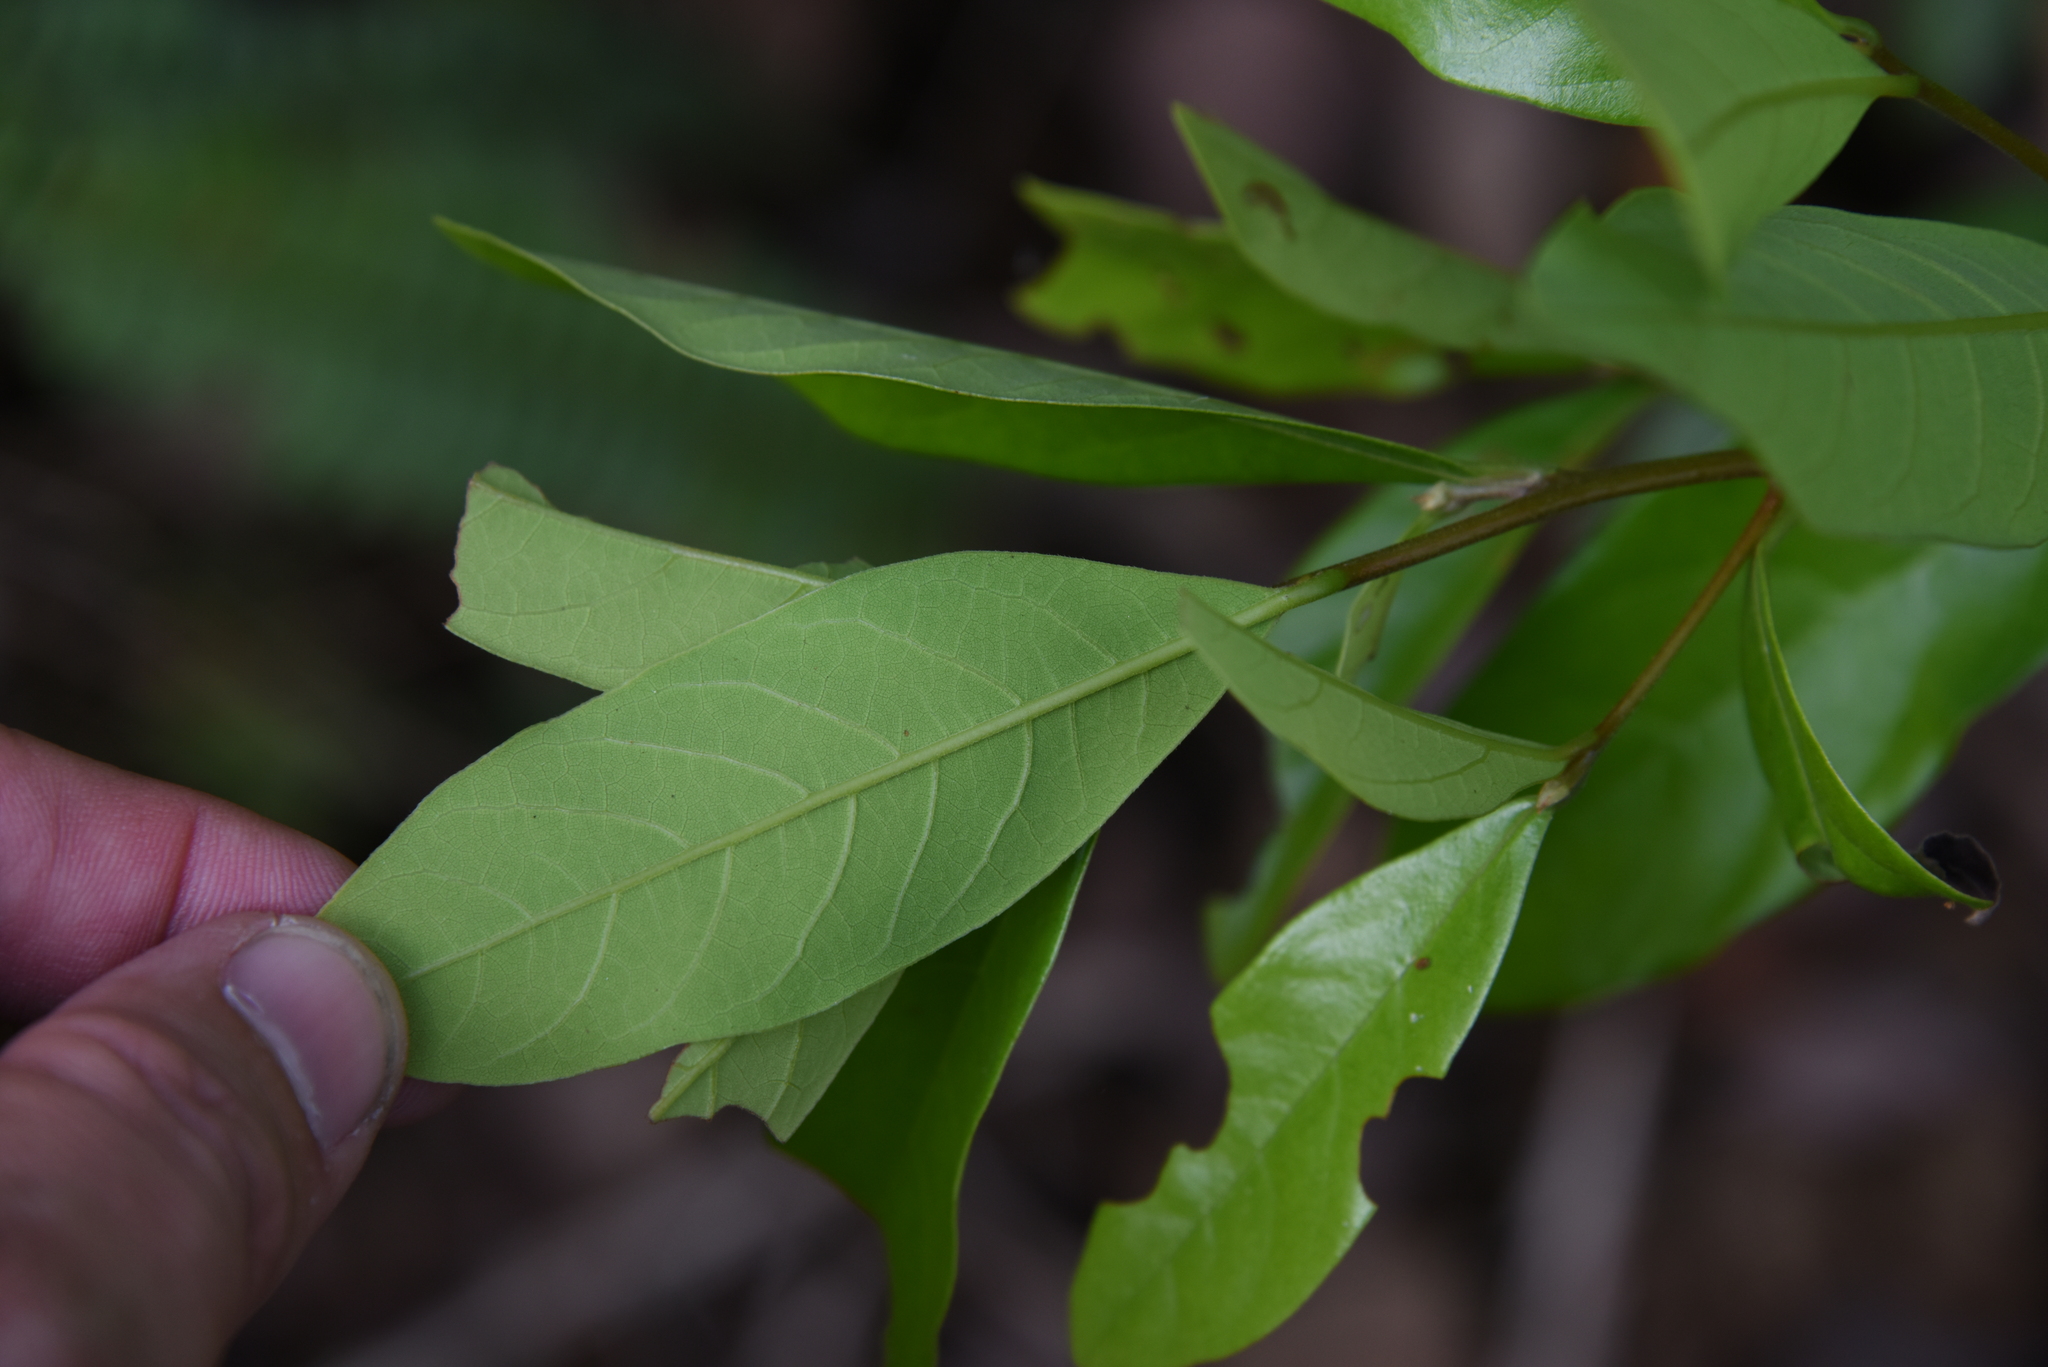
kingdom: Plantae
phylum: Tracheophyta
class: Magnoliopsida
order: Laurales
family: Lauraceae
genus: Litsea
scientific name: Litsea hypophaea
